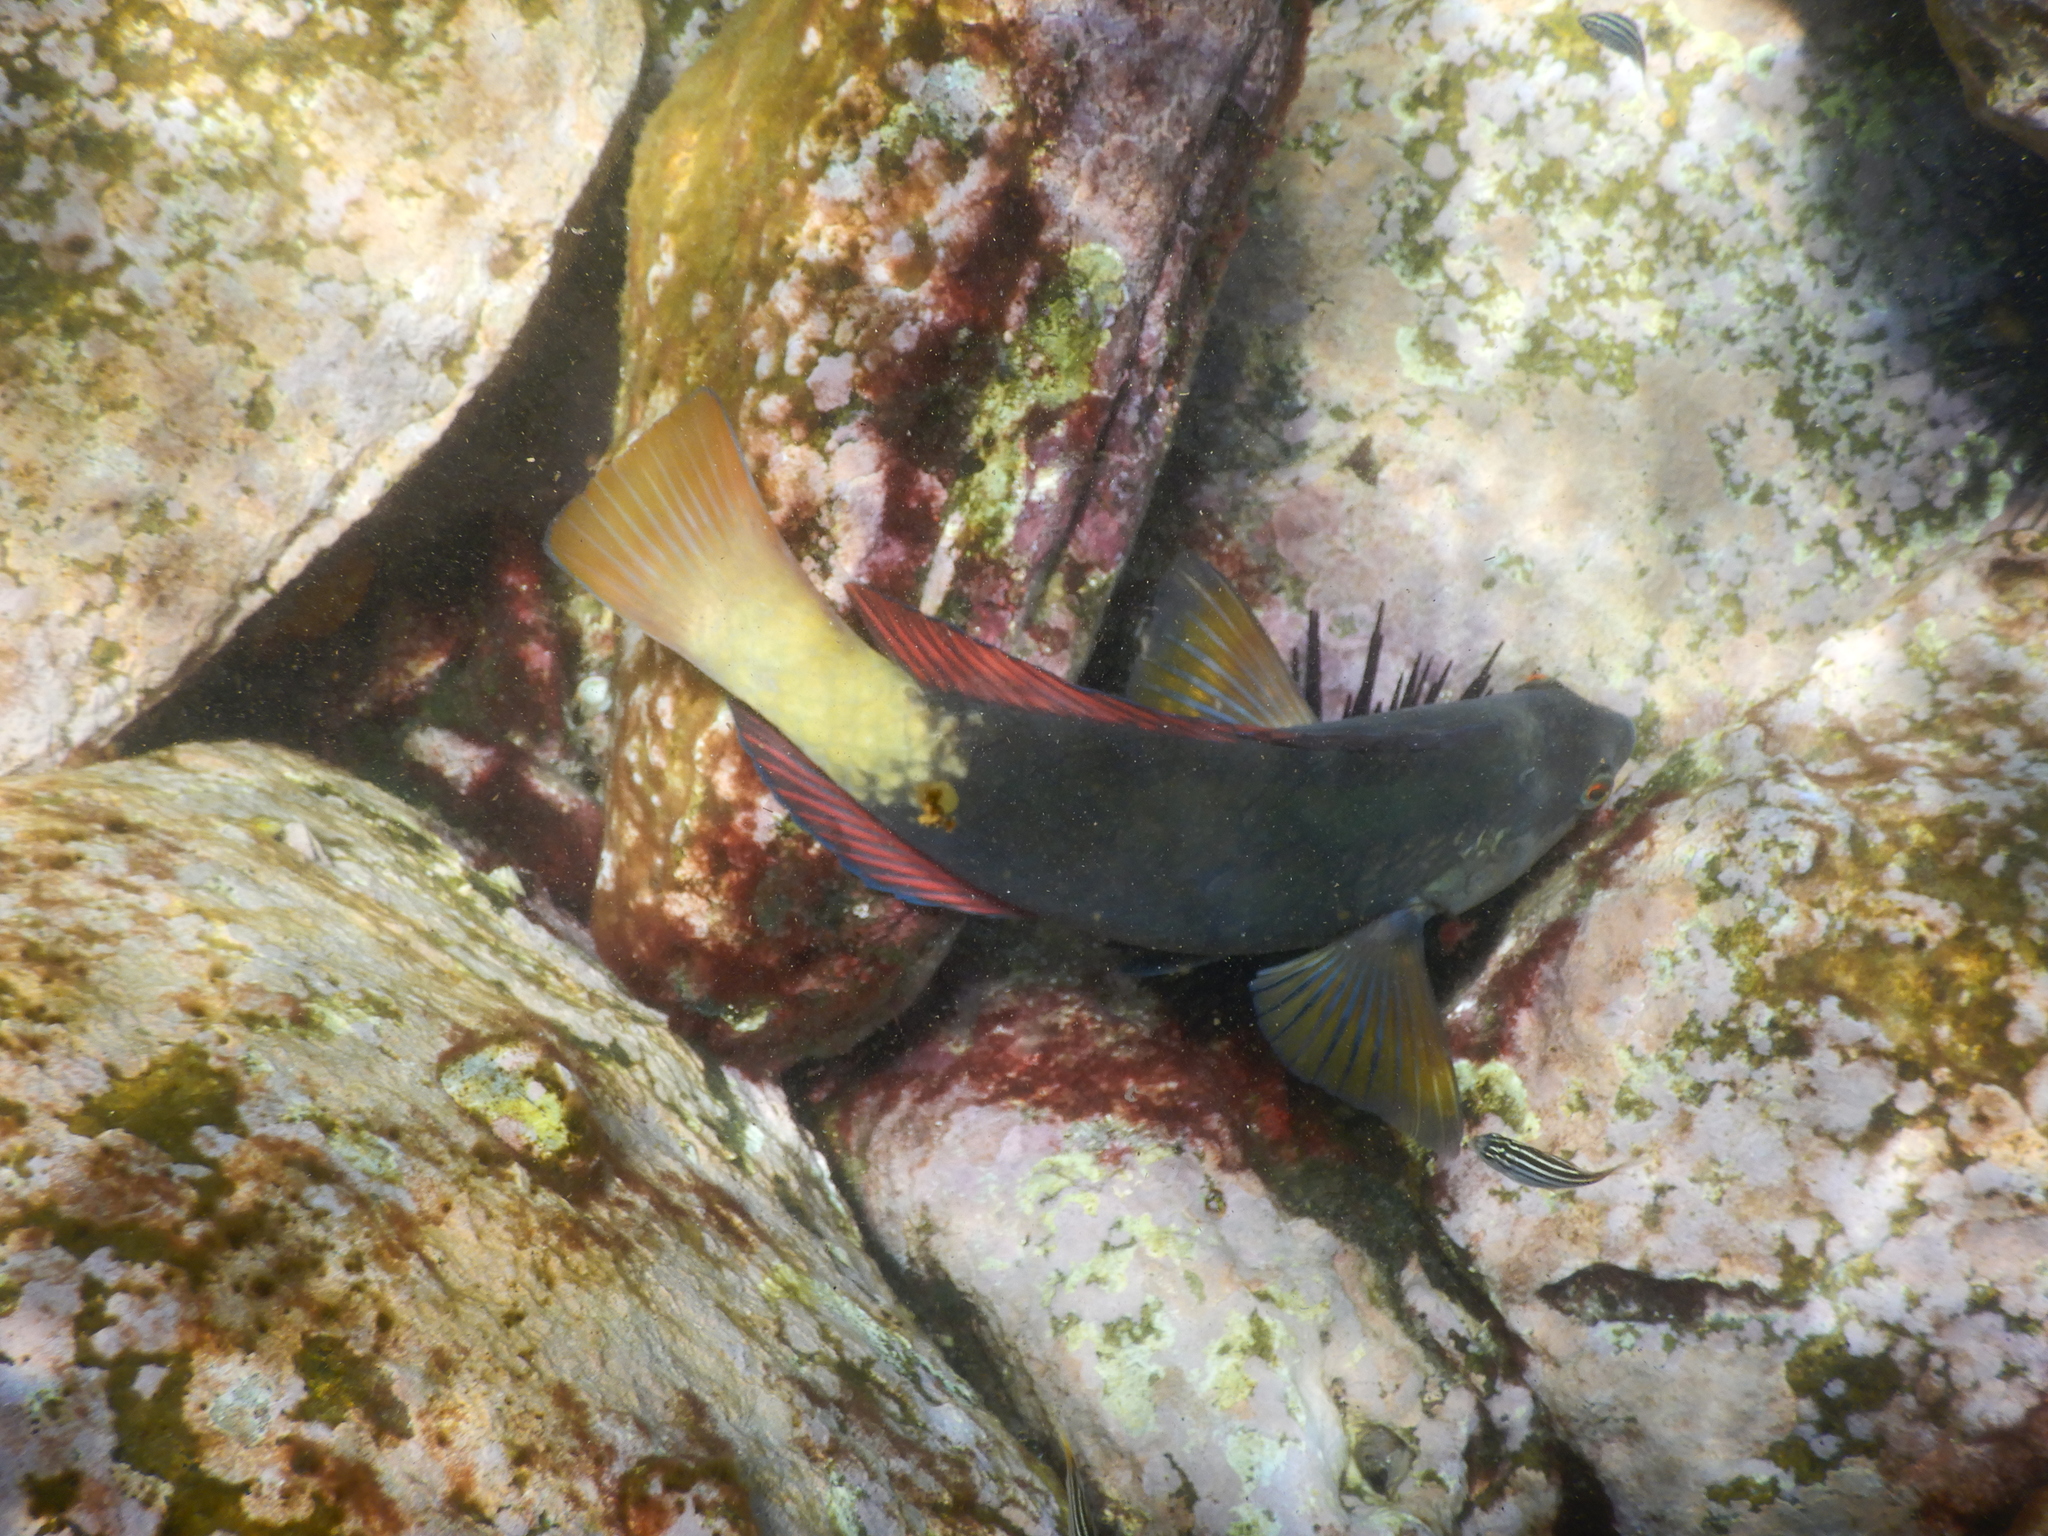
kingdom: Animalia
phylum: Chordata
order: Perciformes
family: Labridae
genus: Notolabrus
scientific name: Notolabrus gymnogenis
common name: Crimson banded wrasse
